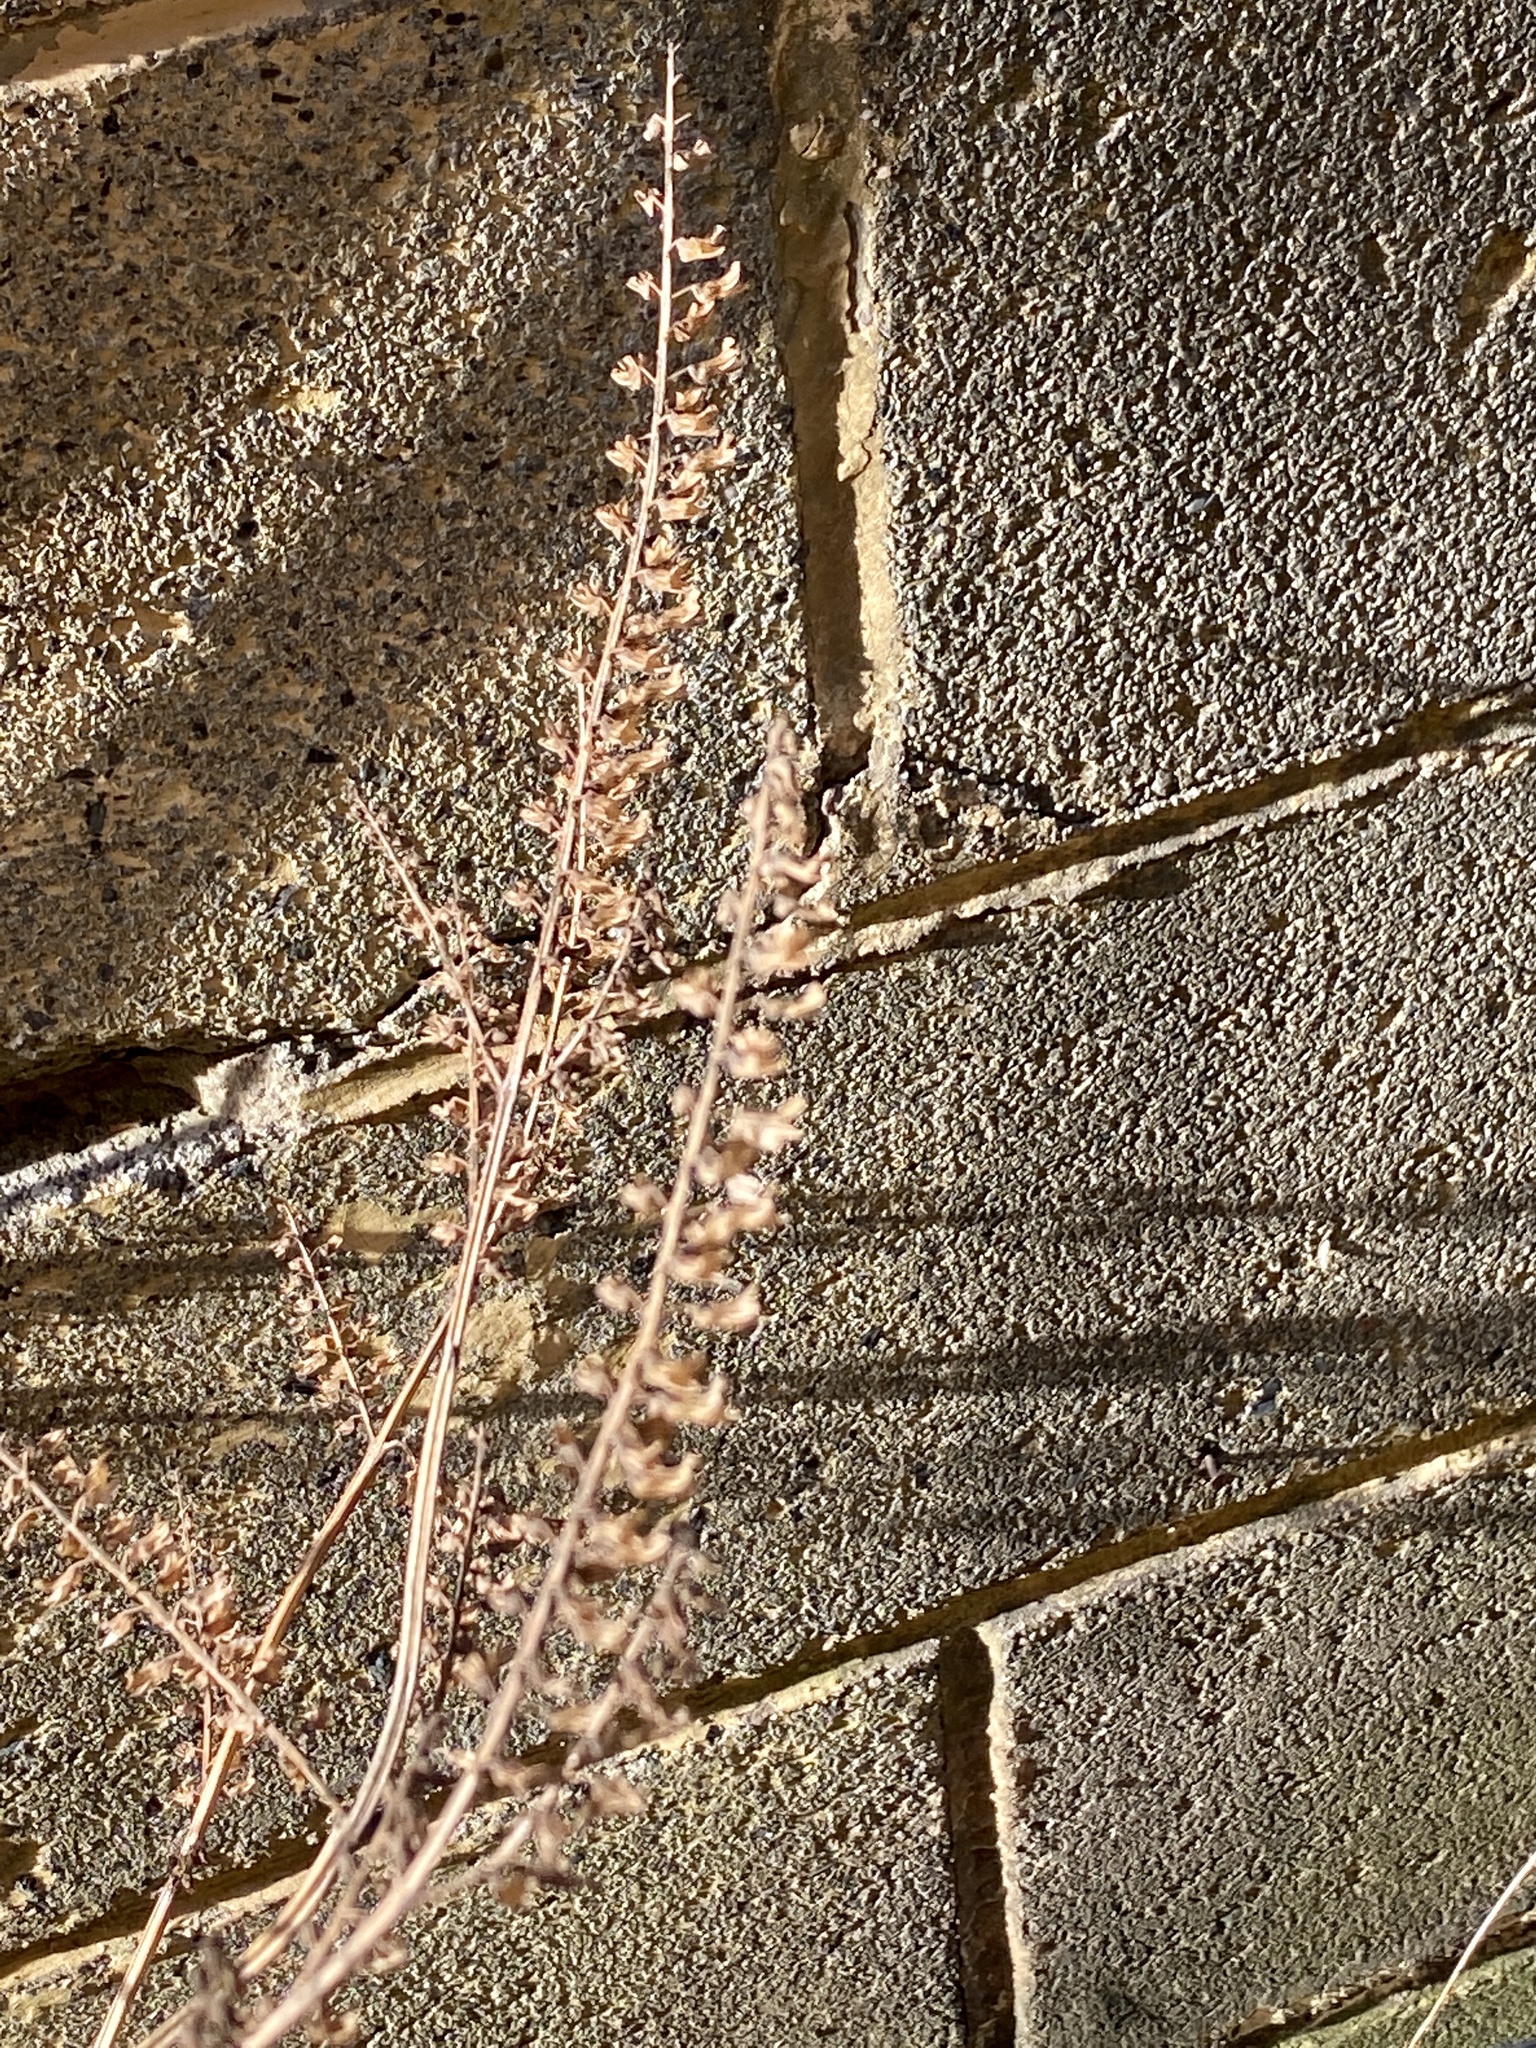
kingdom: Plantae
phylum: Tracheophyta
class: Magnoliopsida
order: Lamiales
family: Lamiaceae
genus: Perilla
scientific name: Perilla frutescens
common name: Perilla
